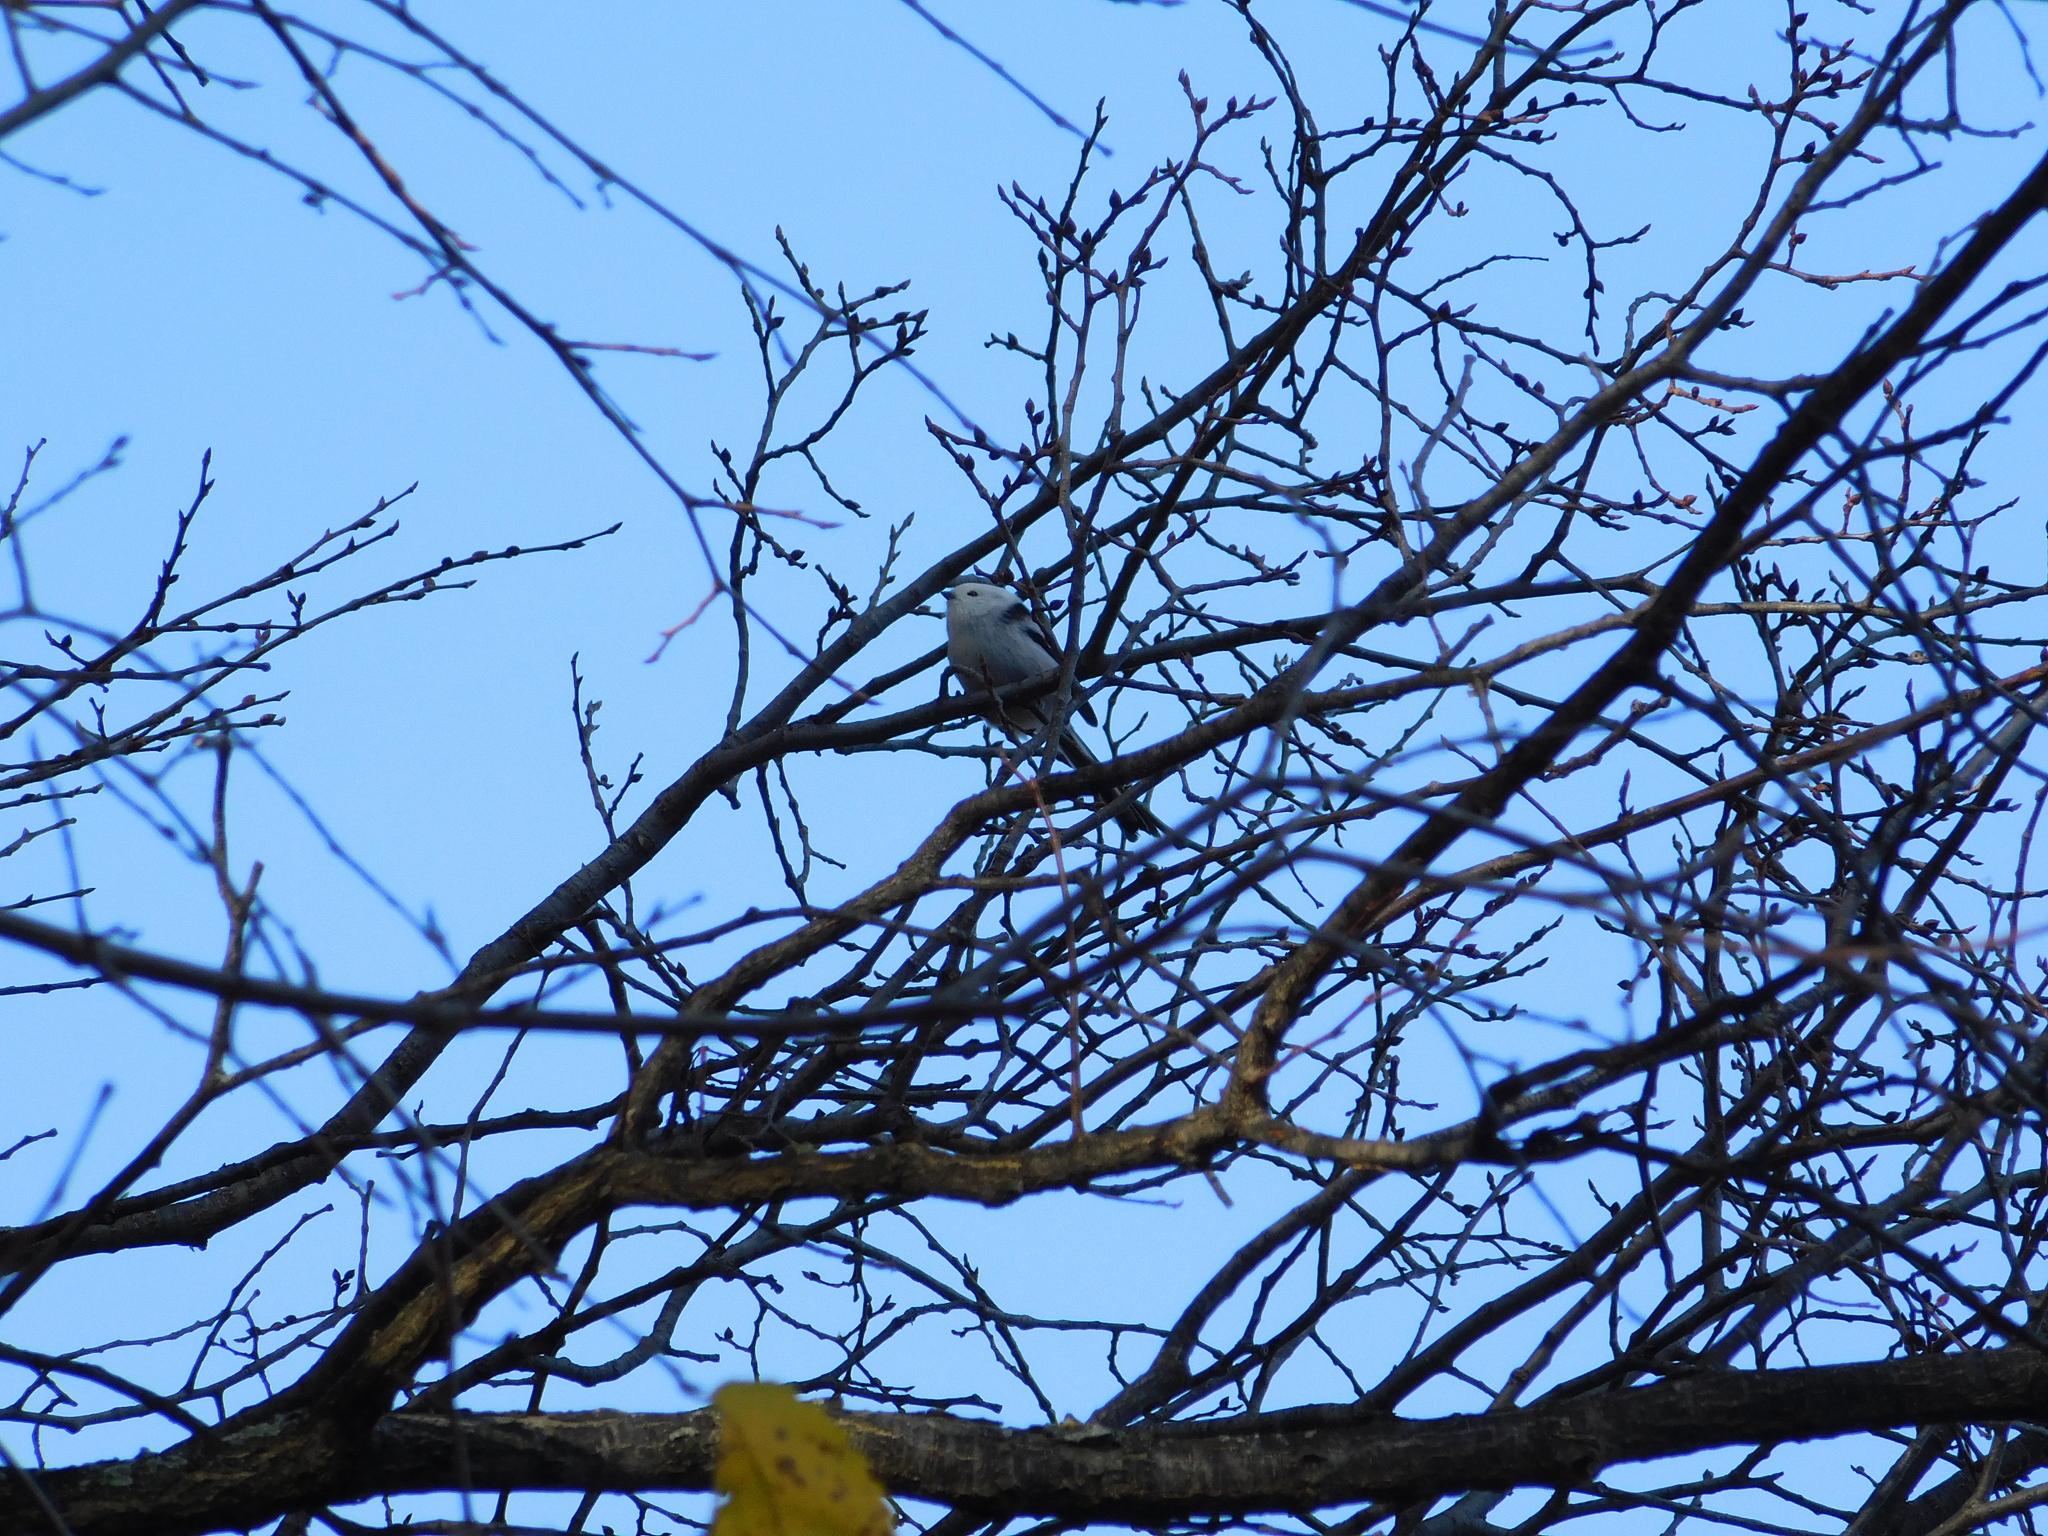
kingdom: Animalia
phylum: Chordata
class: Aves
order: Passeriformes
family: Aegithalidae
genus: Aegithalos
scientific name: Aegithalos caudatus
